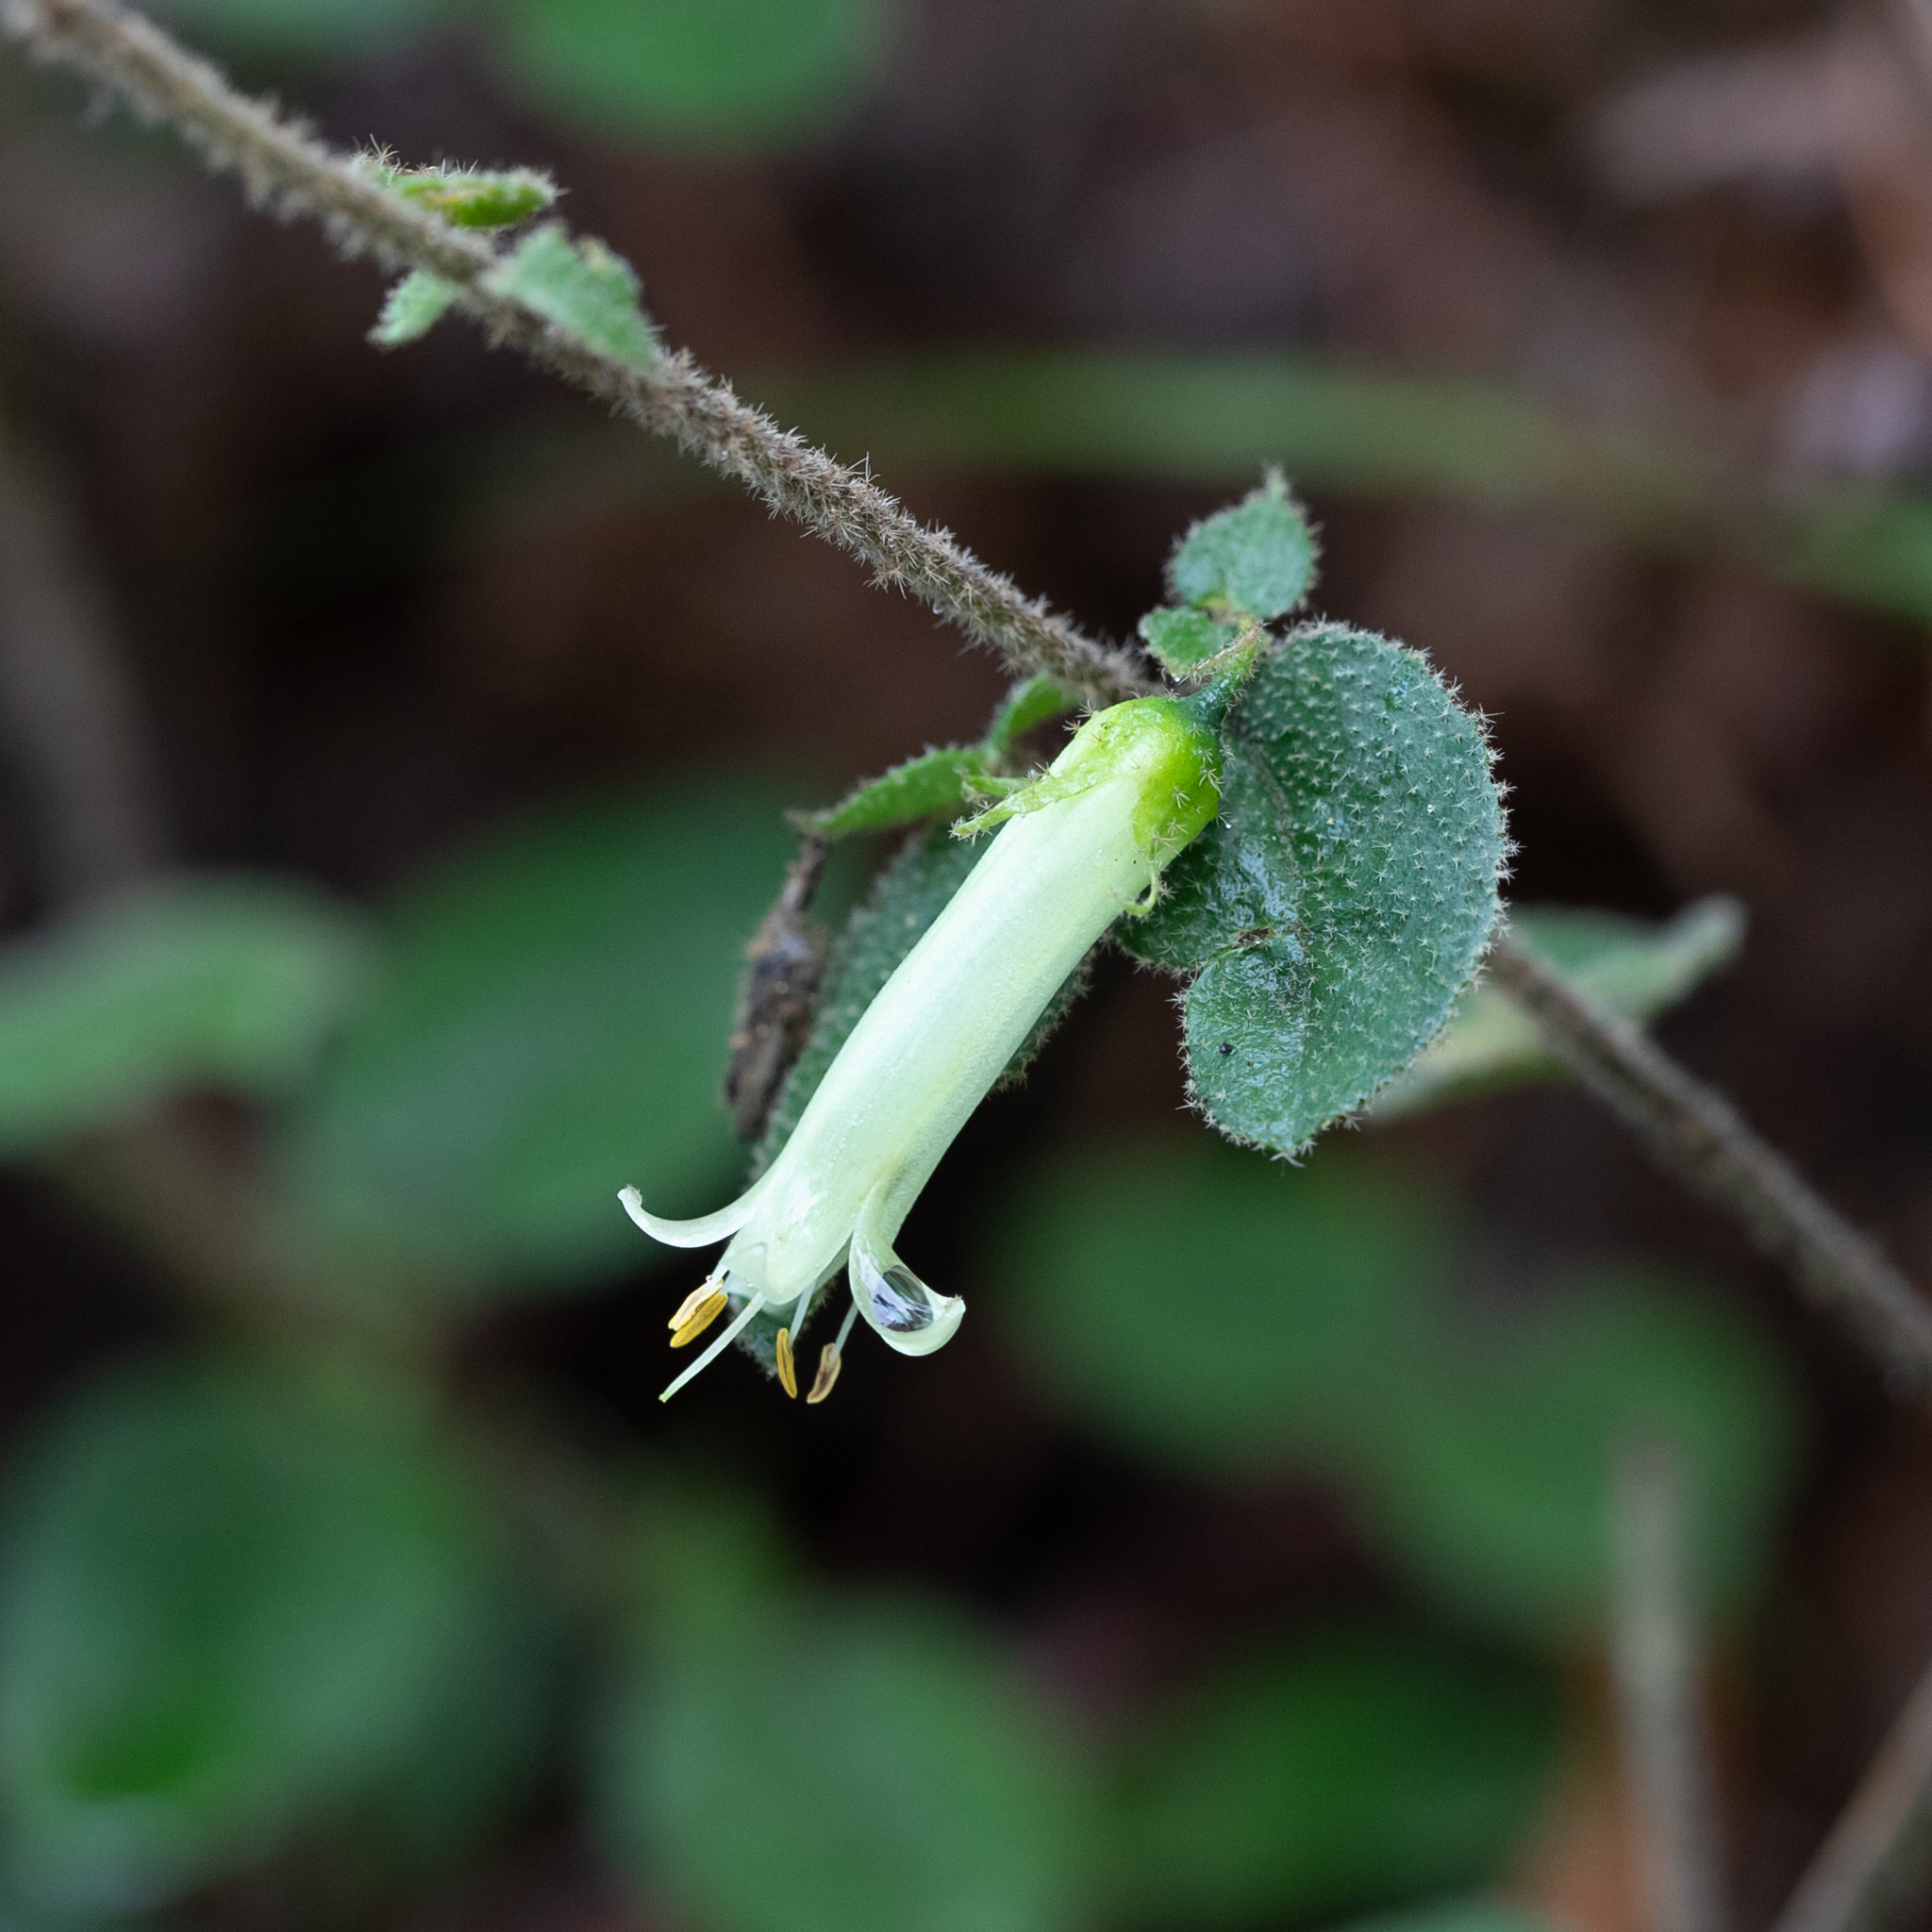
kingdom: Plantae
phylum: Tracheophyta
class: Magnoliopsida
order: Sapindales
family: Rutaceae
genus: Correa
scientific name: Correa aemula
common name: Hairy correa
